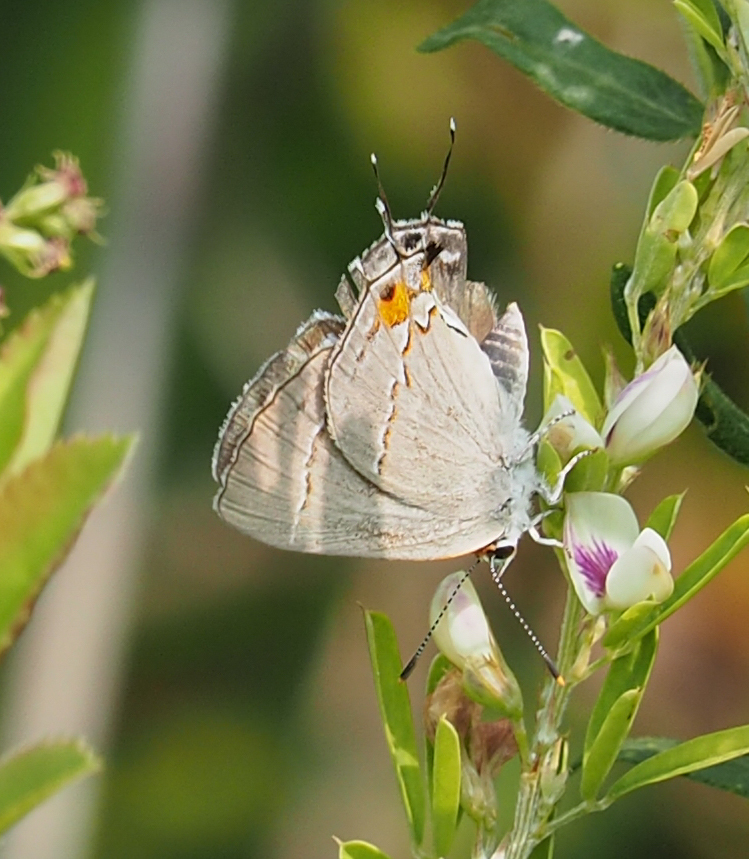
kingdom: Animalia
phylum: Arthropoda
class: Insecta
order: Lepidoptera
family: Lycaenidae
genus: Strymon
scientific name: Strymon melinus
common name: Gray hairstreak
